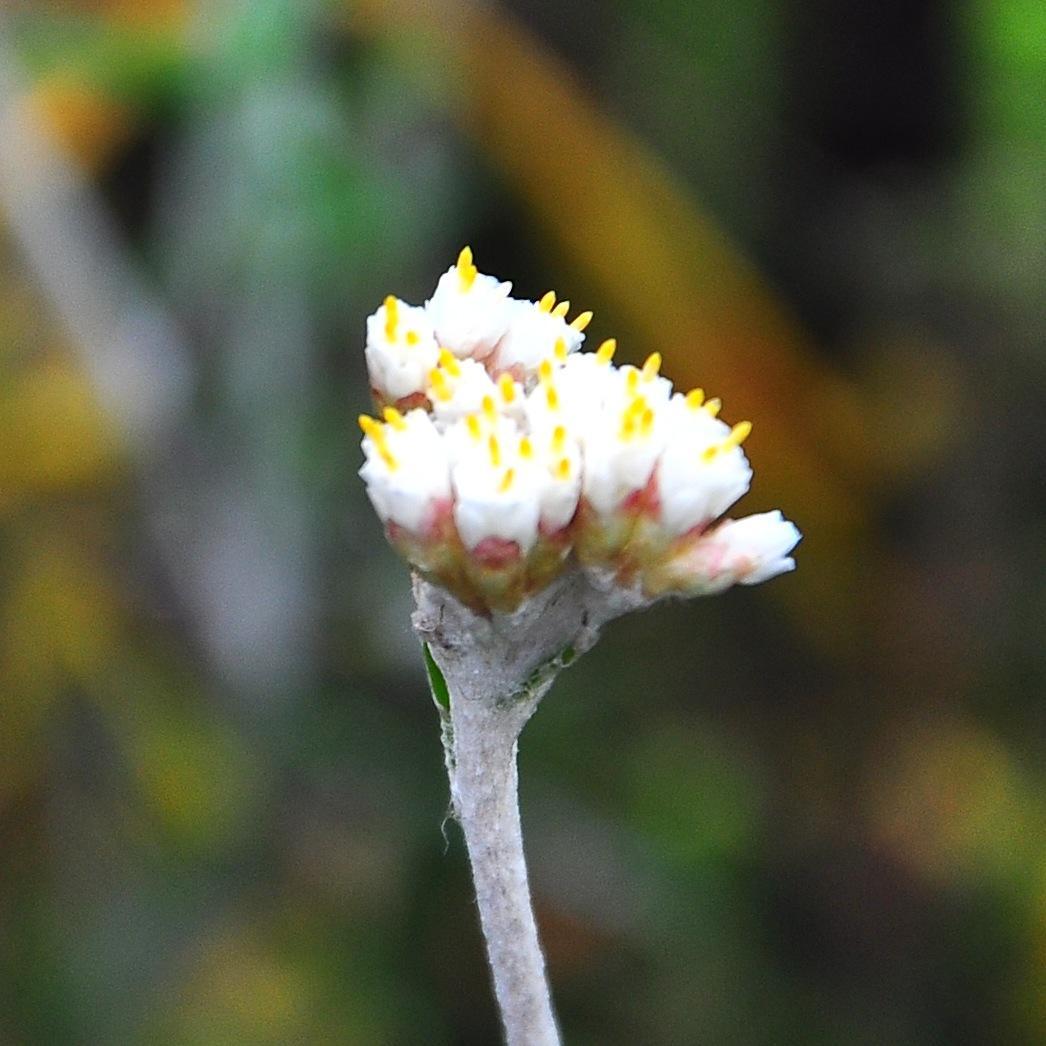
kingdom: Plantae
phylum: Tracheophyta
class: Magnoliopsida
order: Asterales
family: Asteraceae
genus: Anaxeton
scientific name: Anaxeton arborescens
